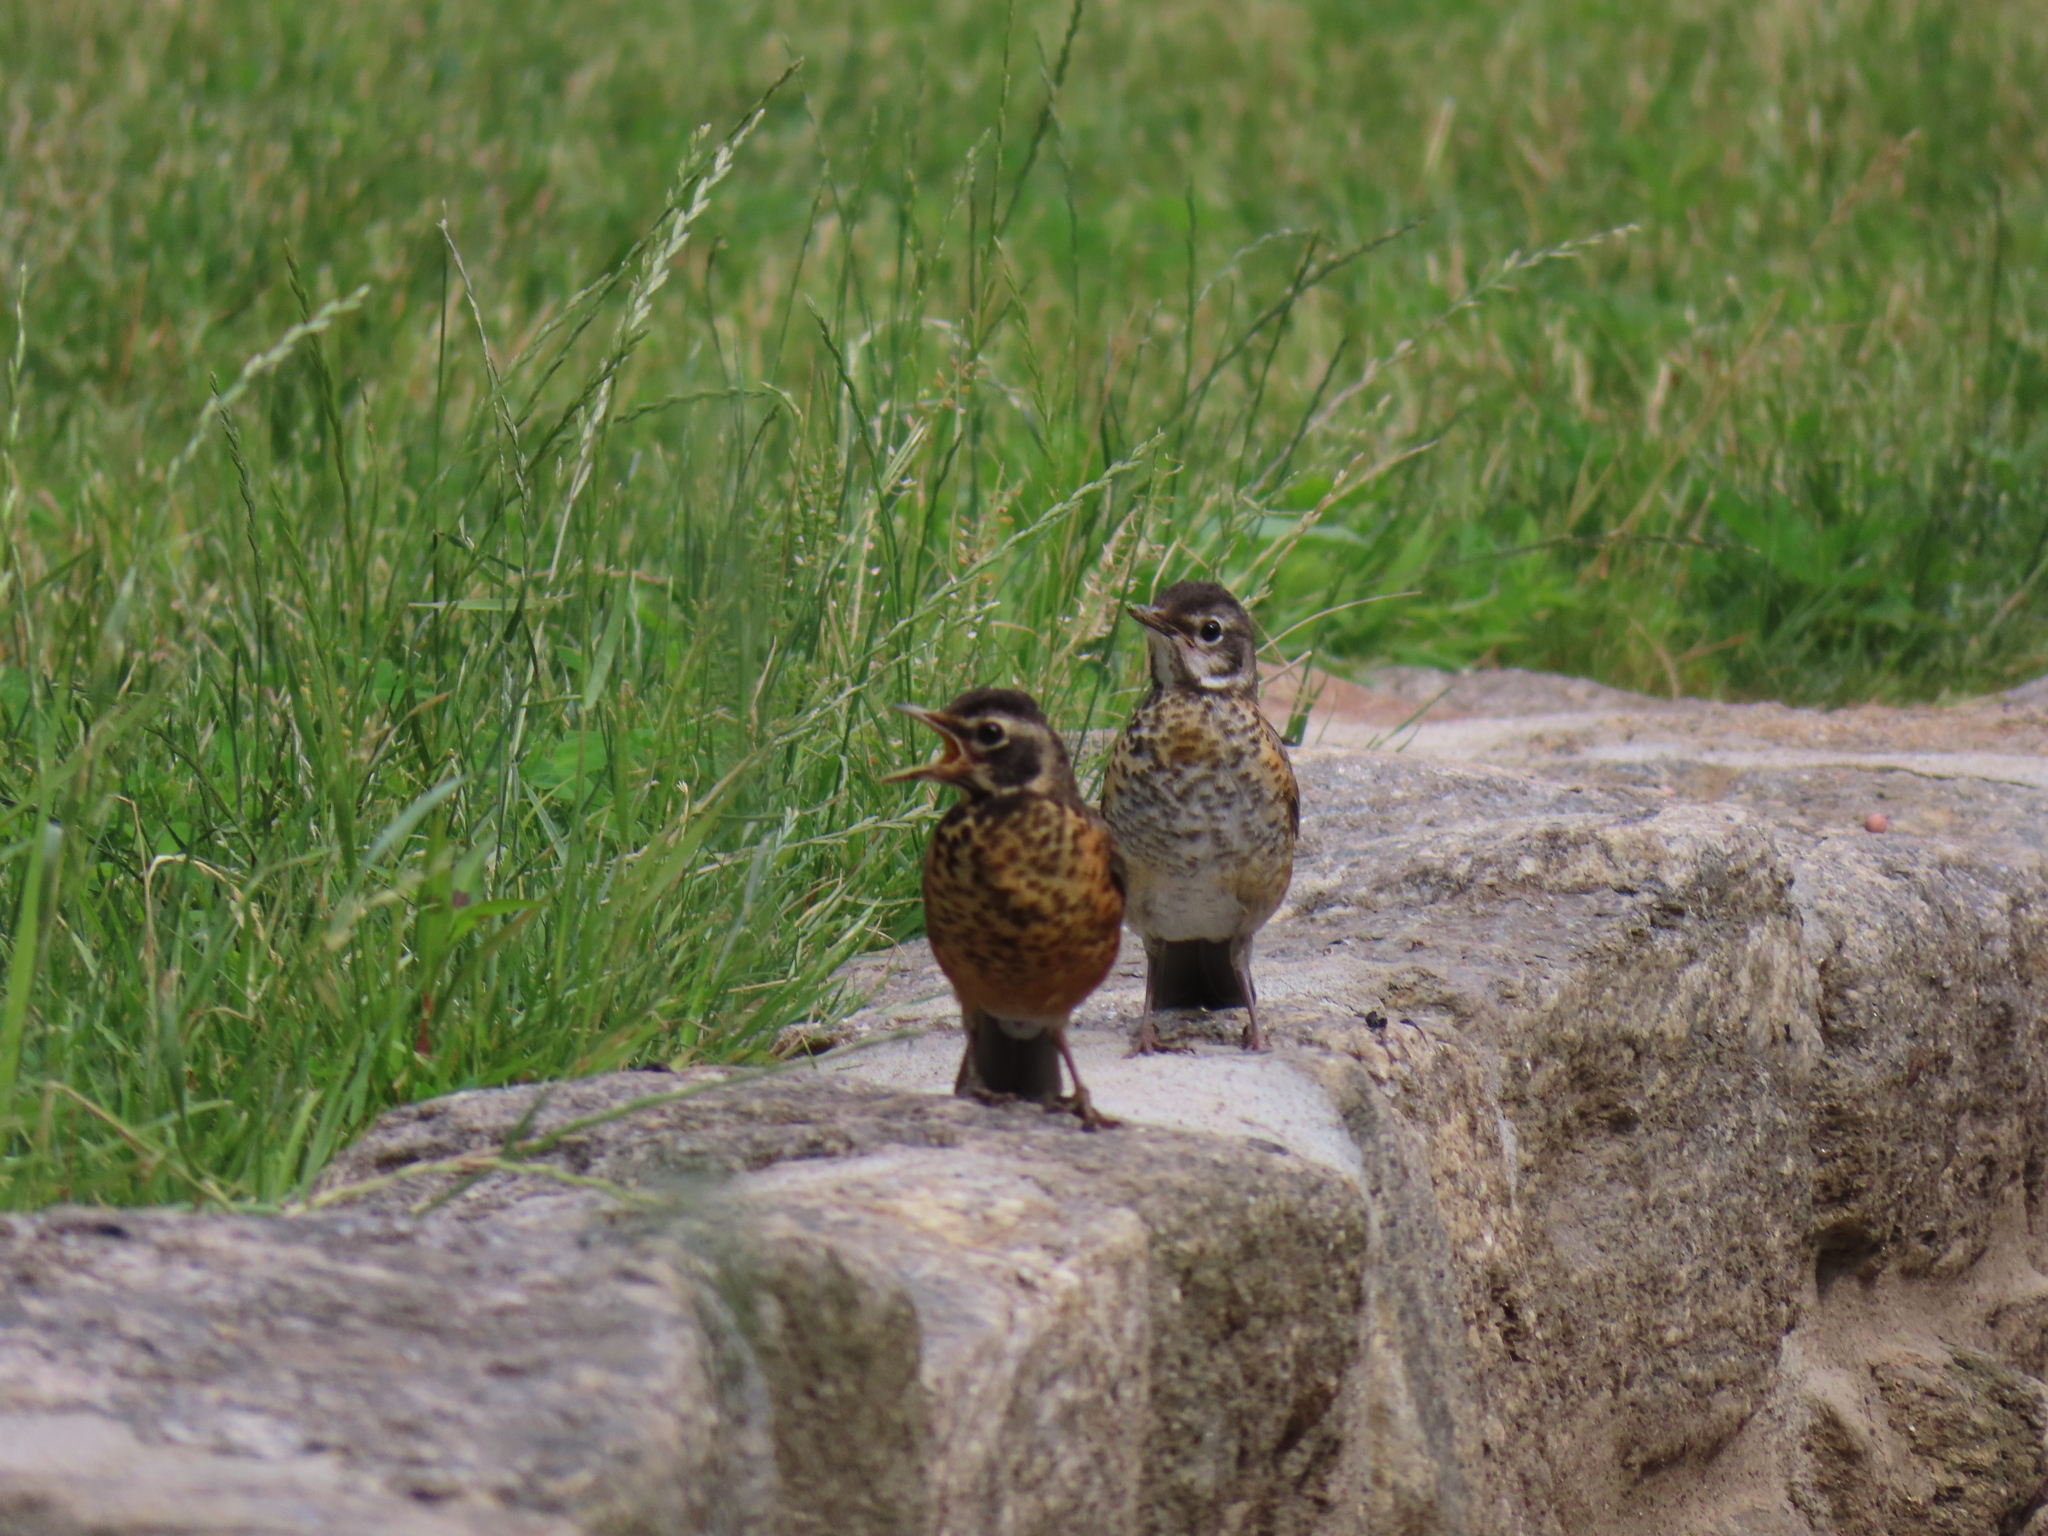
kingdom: Animalia
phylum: Chordata
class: Aves
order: Passeriformes
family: Turdidae
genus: Turdus
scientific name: Turdus migratorius
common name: American robin
